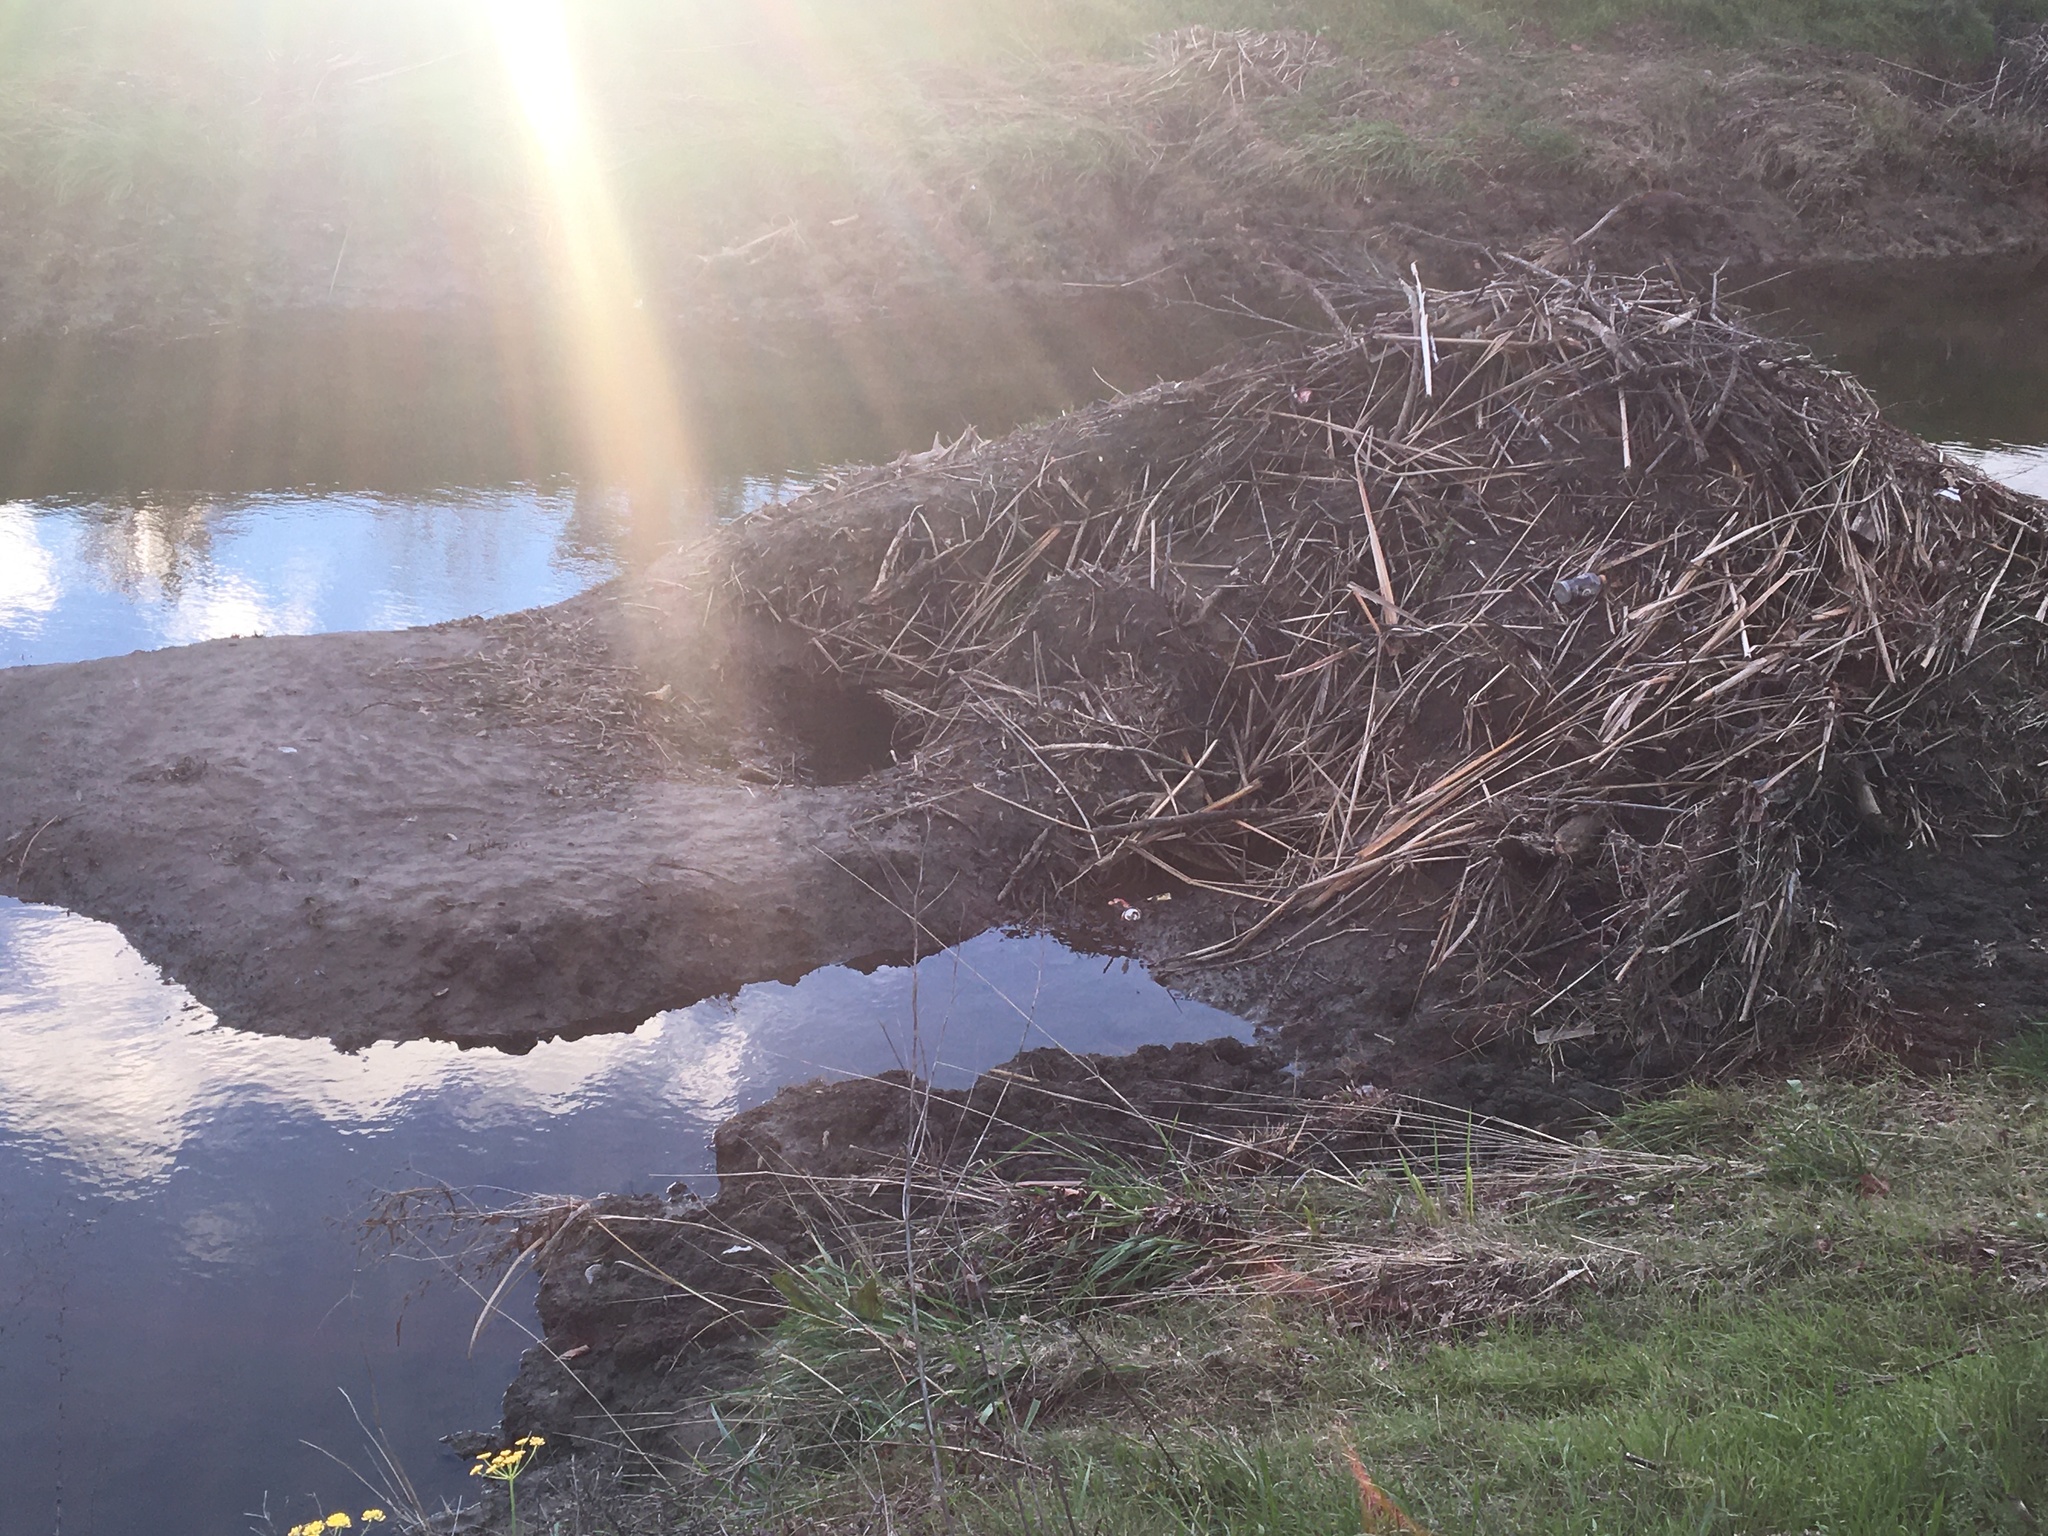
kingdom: Animalia
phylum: Chordata
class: Mammalia
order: Rodentia
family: Castoridae
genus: Castor
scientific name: Castor canadensis
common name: American beaver
